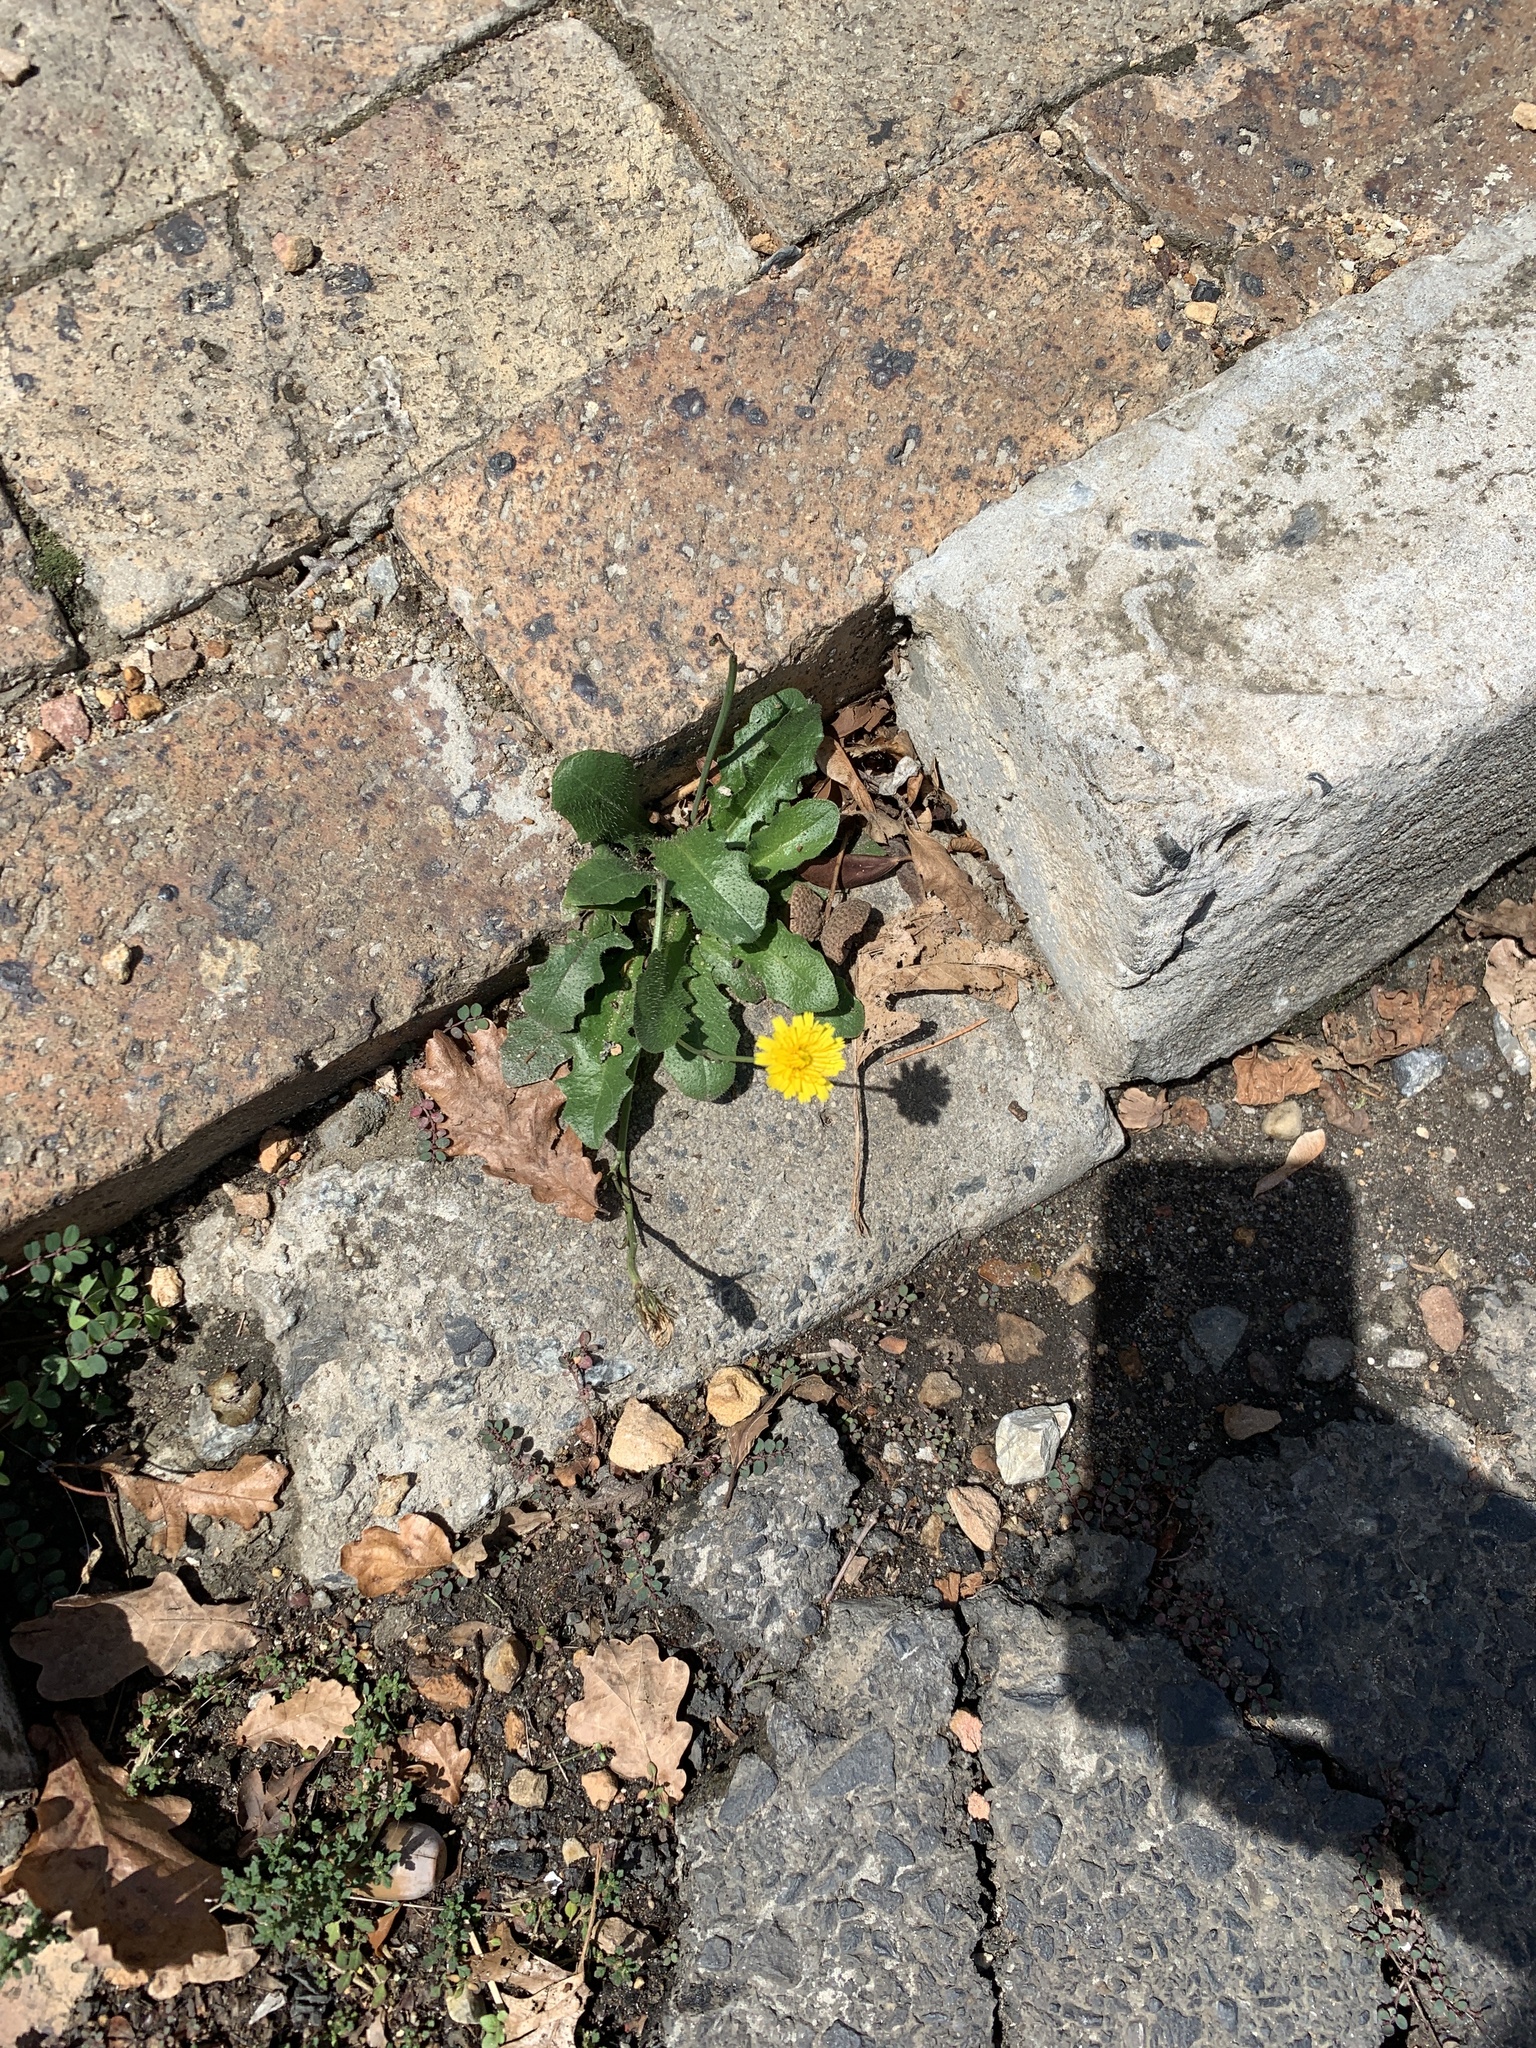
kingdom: Plantae
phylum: Tracheophyta
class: Magnoliopsida
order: Asterales
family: Asteraceae
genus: Hypochaeris
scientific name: Hypochaeris radicata
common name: Flatweed
